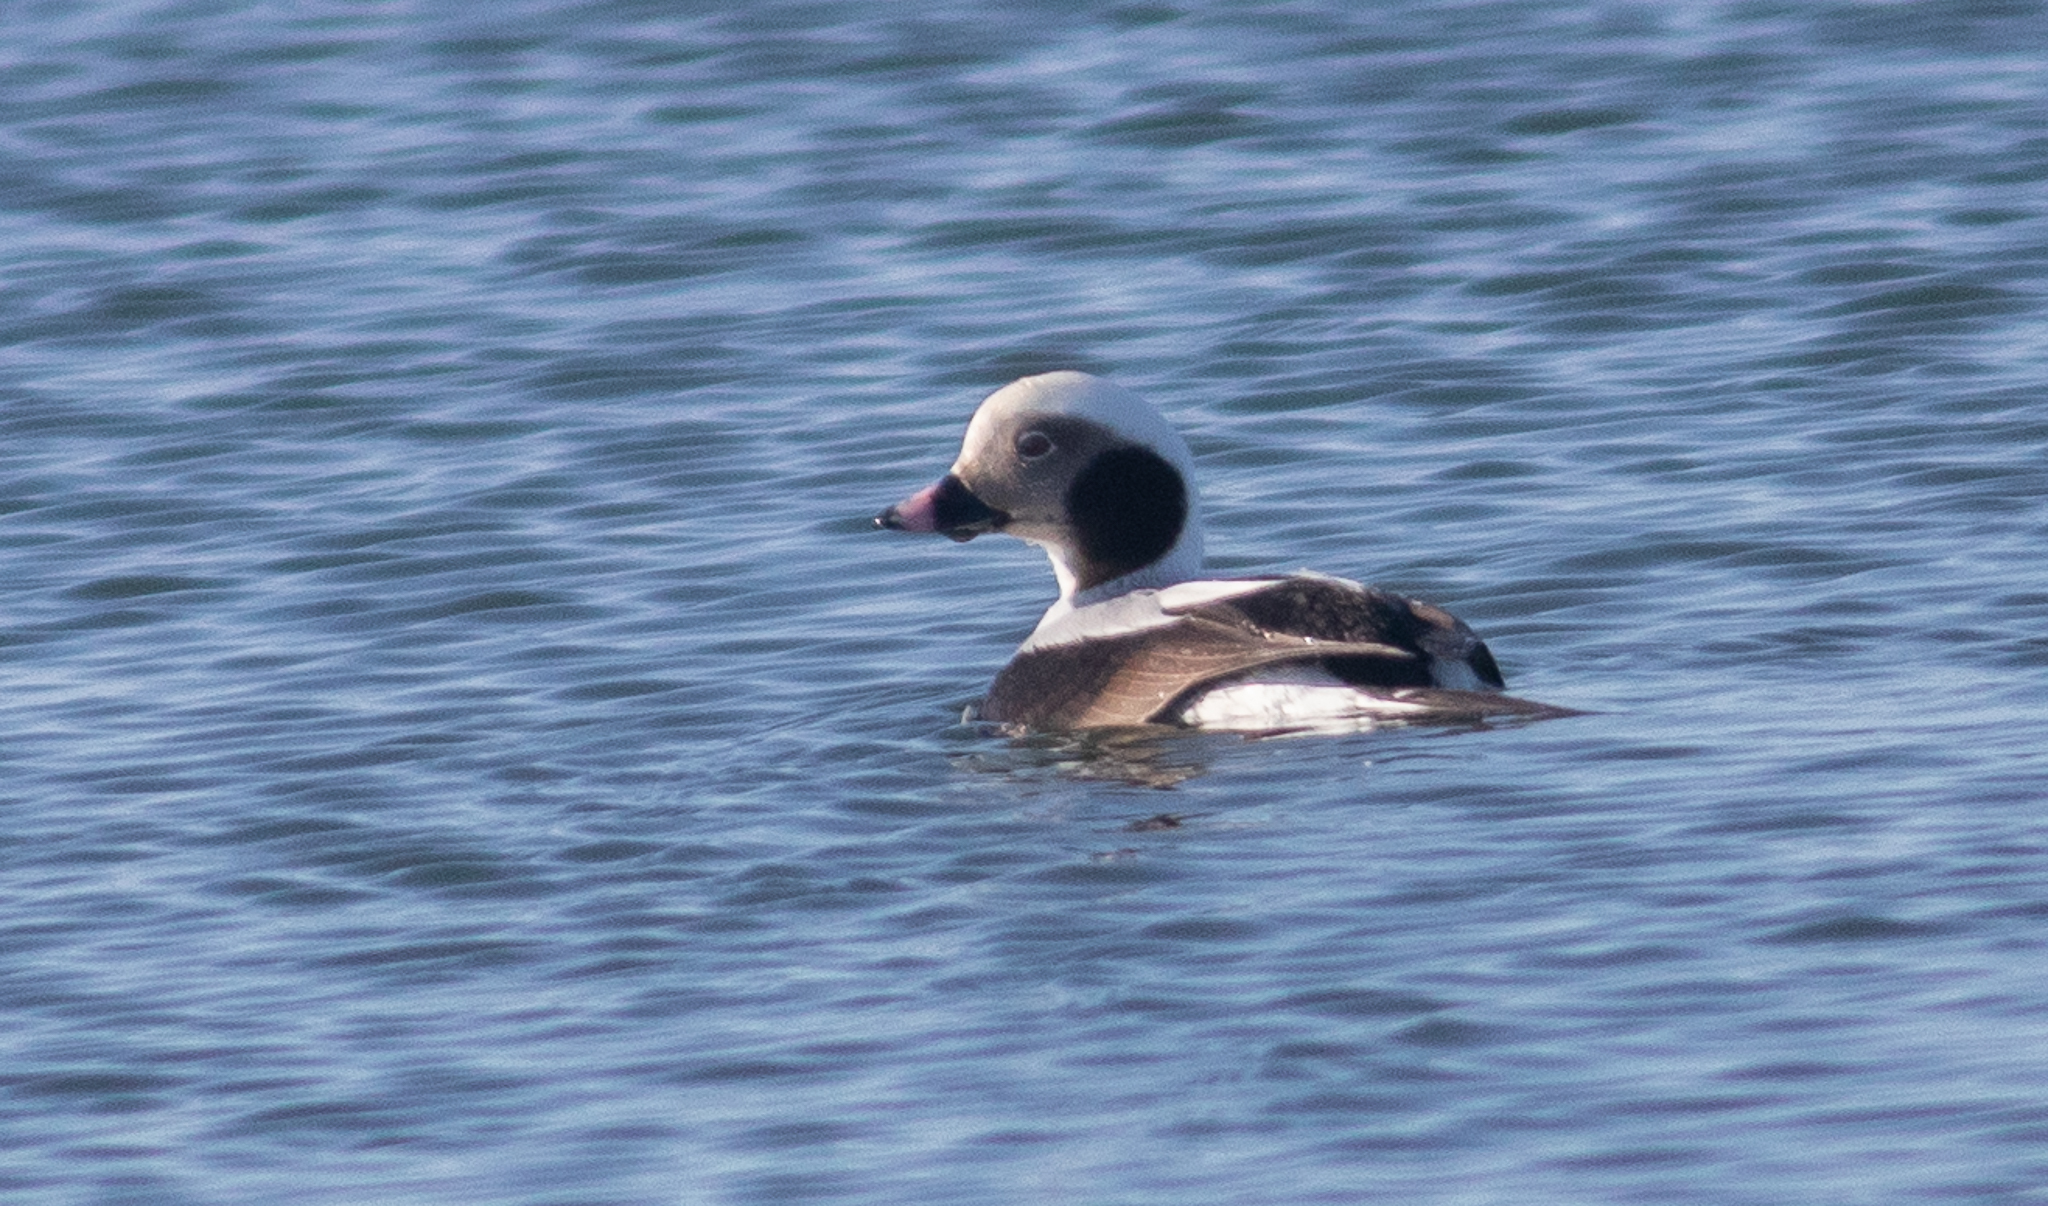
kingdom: Animalia
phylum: Chordata
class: Aves
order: Anseriformes
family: Anatidae
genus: Clangula
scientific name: Clangula hyemalis
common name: Long-tailed duck
